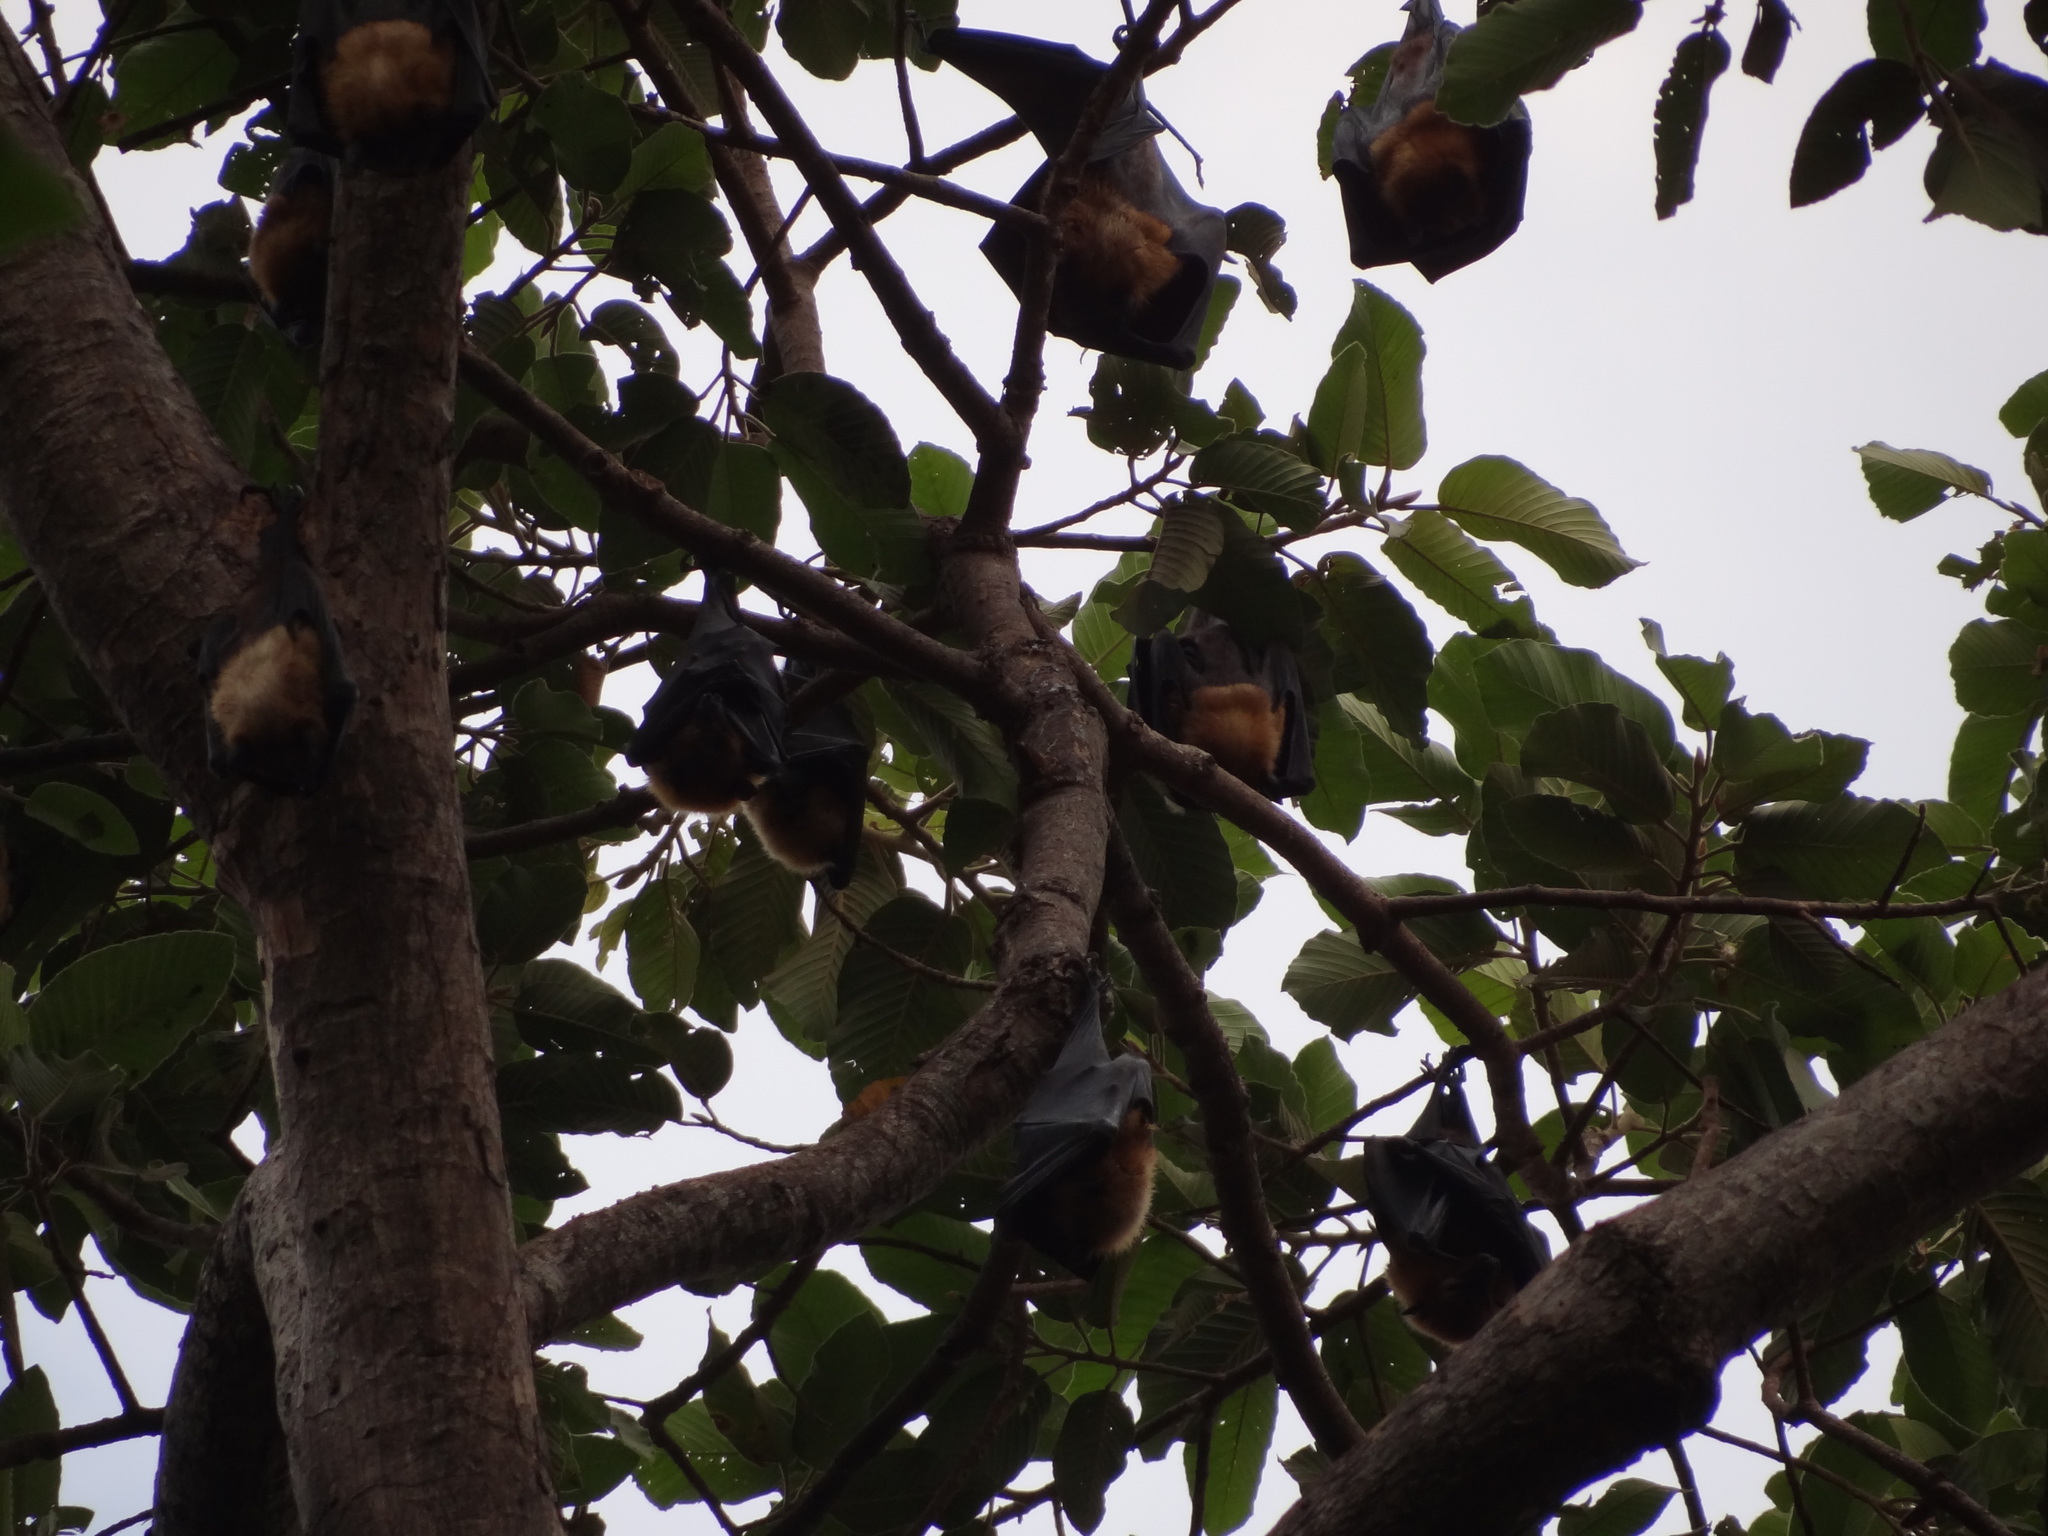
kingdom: Animalia
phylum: Chordata
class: Mammalia
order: Chiroptera
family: Pteropodidae
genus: Pteropus
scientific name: Pteropus lylei
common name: Lyle's flying fox
